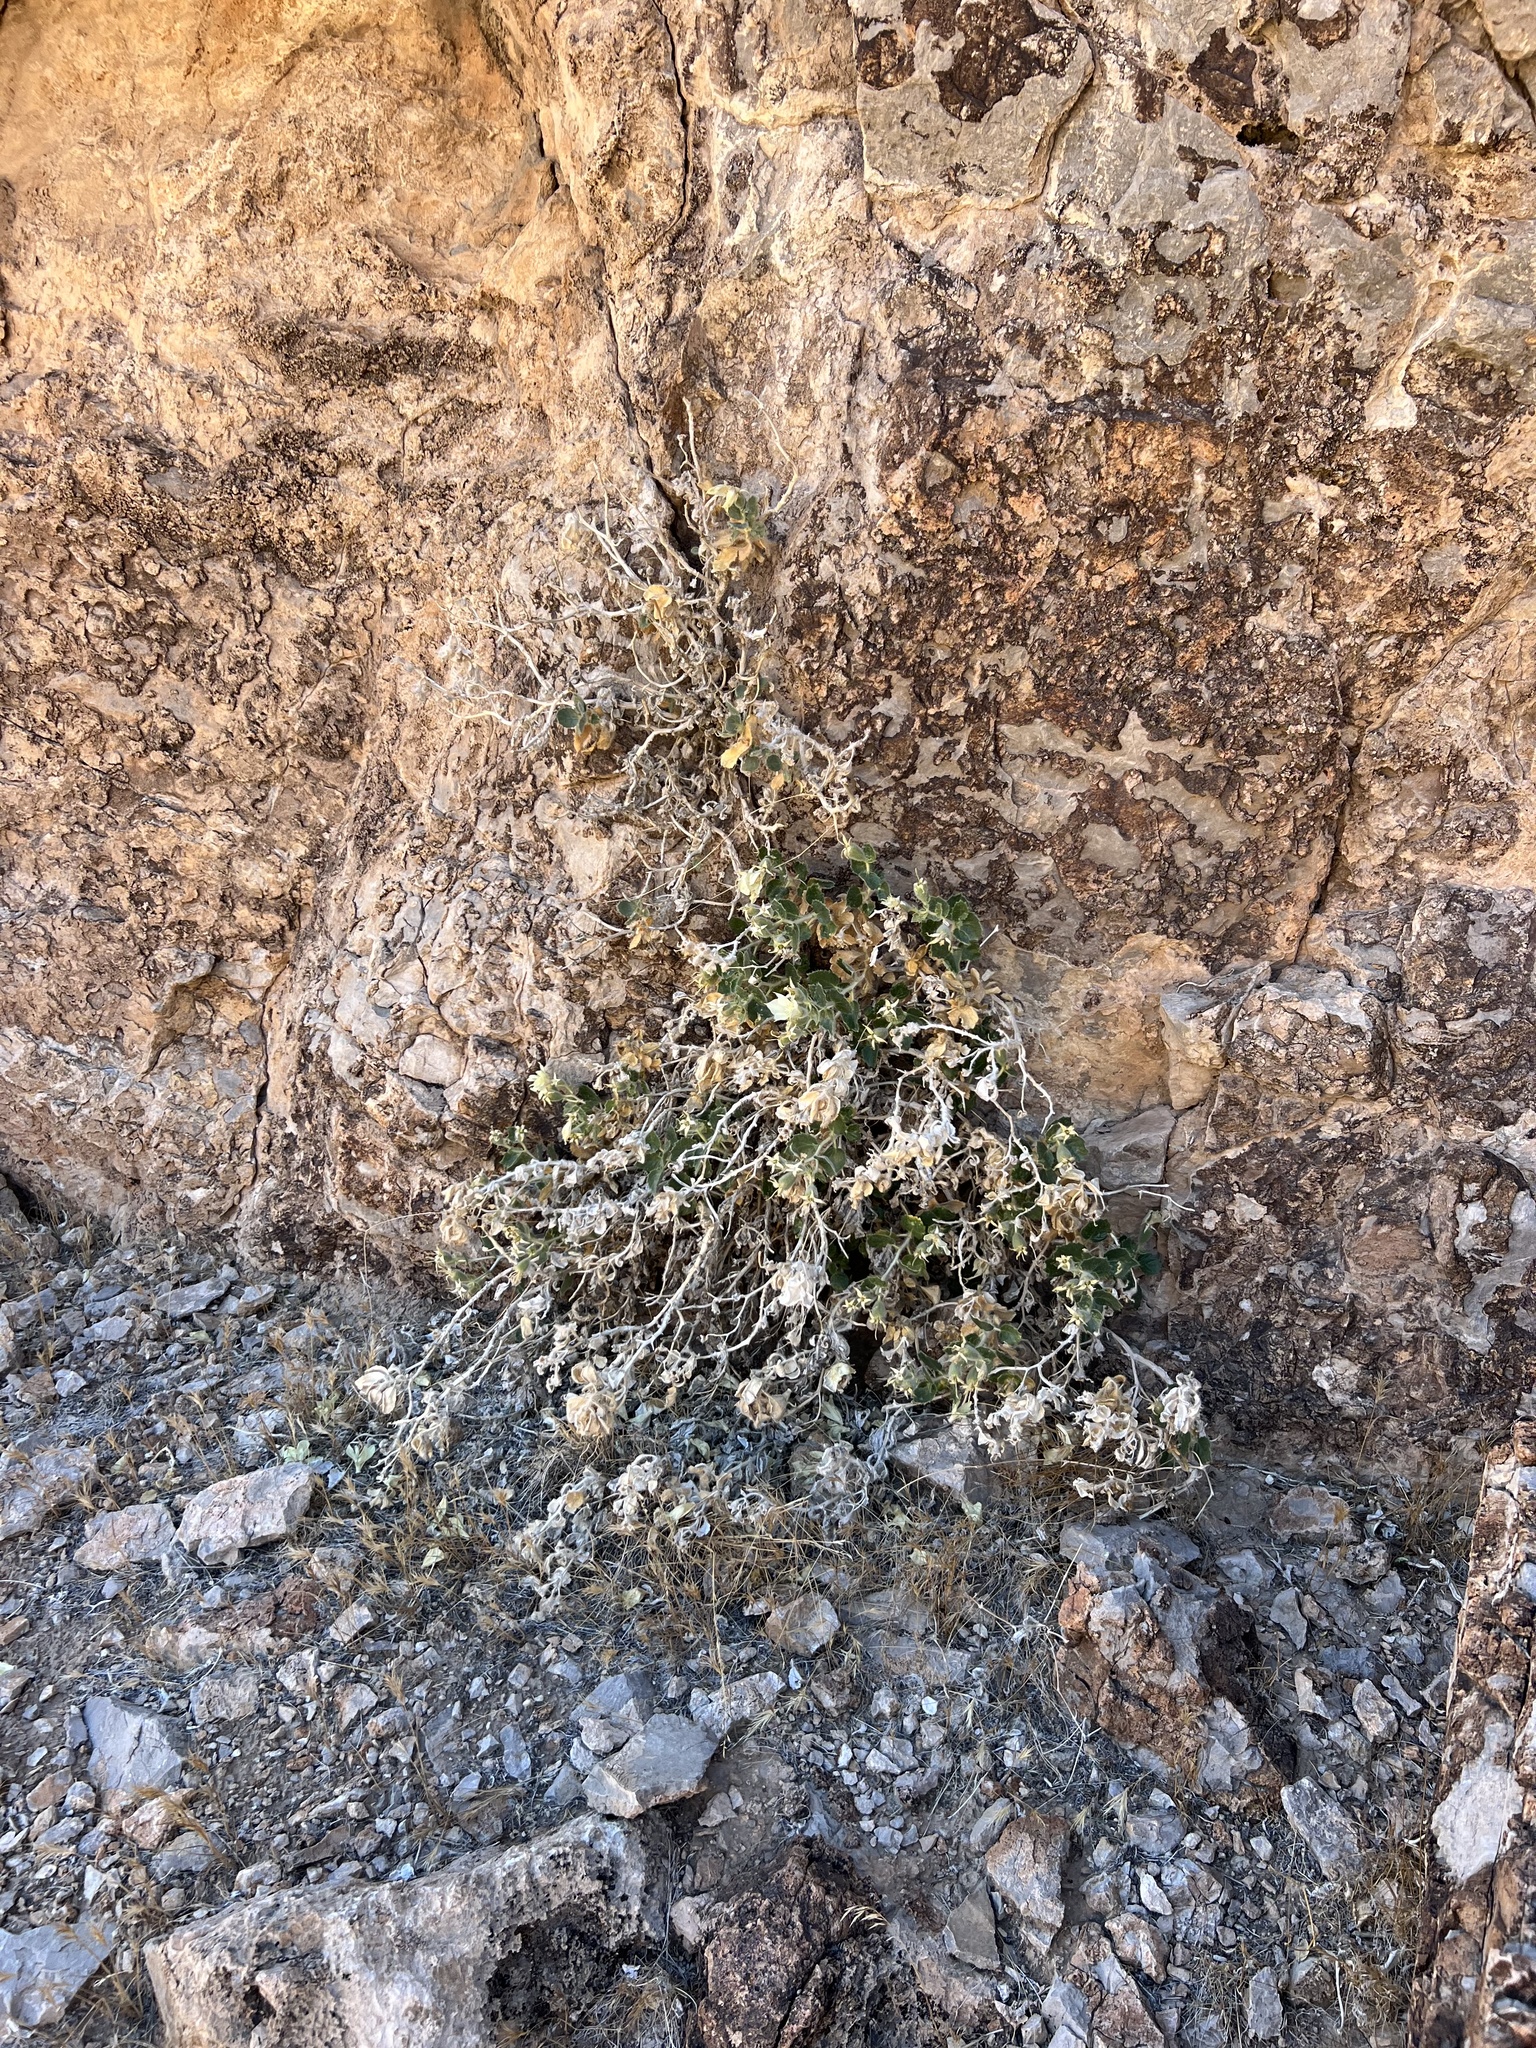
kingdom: Plantae
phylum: Tracheophyta
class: Magnoliopsida
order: Cornales
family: Loasaceae
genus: Eucnide
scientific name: Eucnide urens
